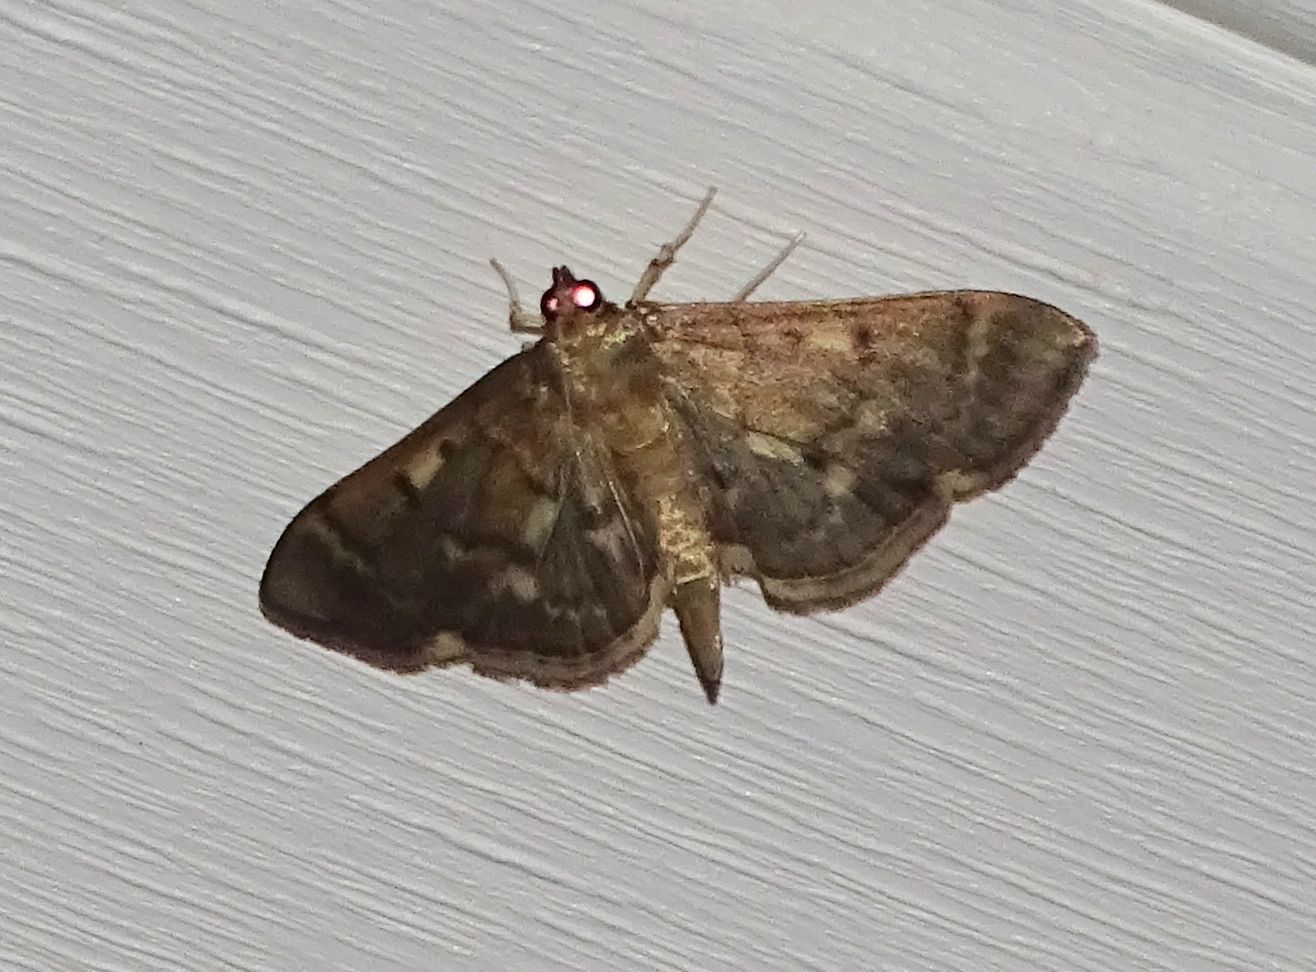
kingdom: Animalia
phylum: Arthropoda
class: Insecta
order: Lepidoptera
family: Crambidae
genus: Herpetogramma
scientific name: Herpetogramma aeglealis
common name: Serpentine webworm moth
